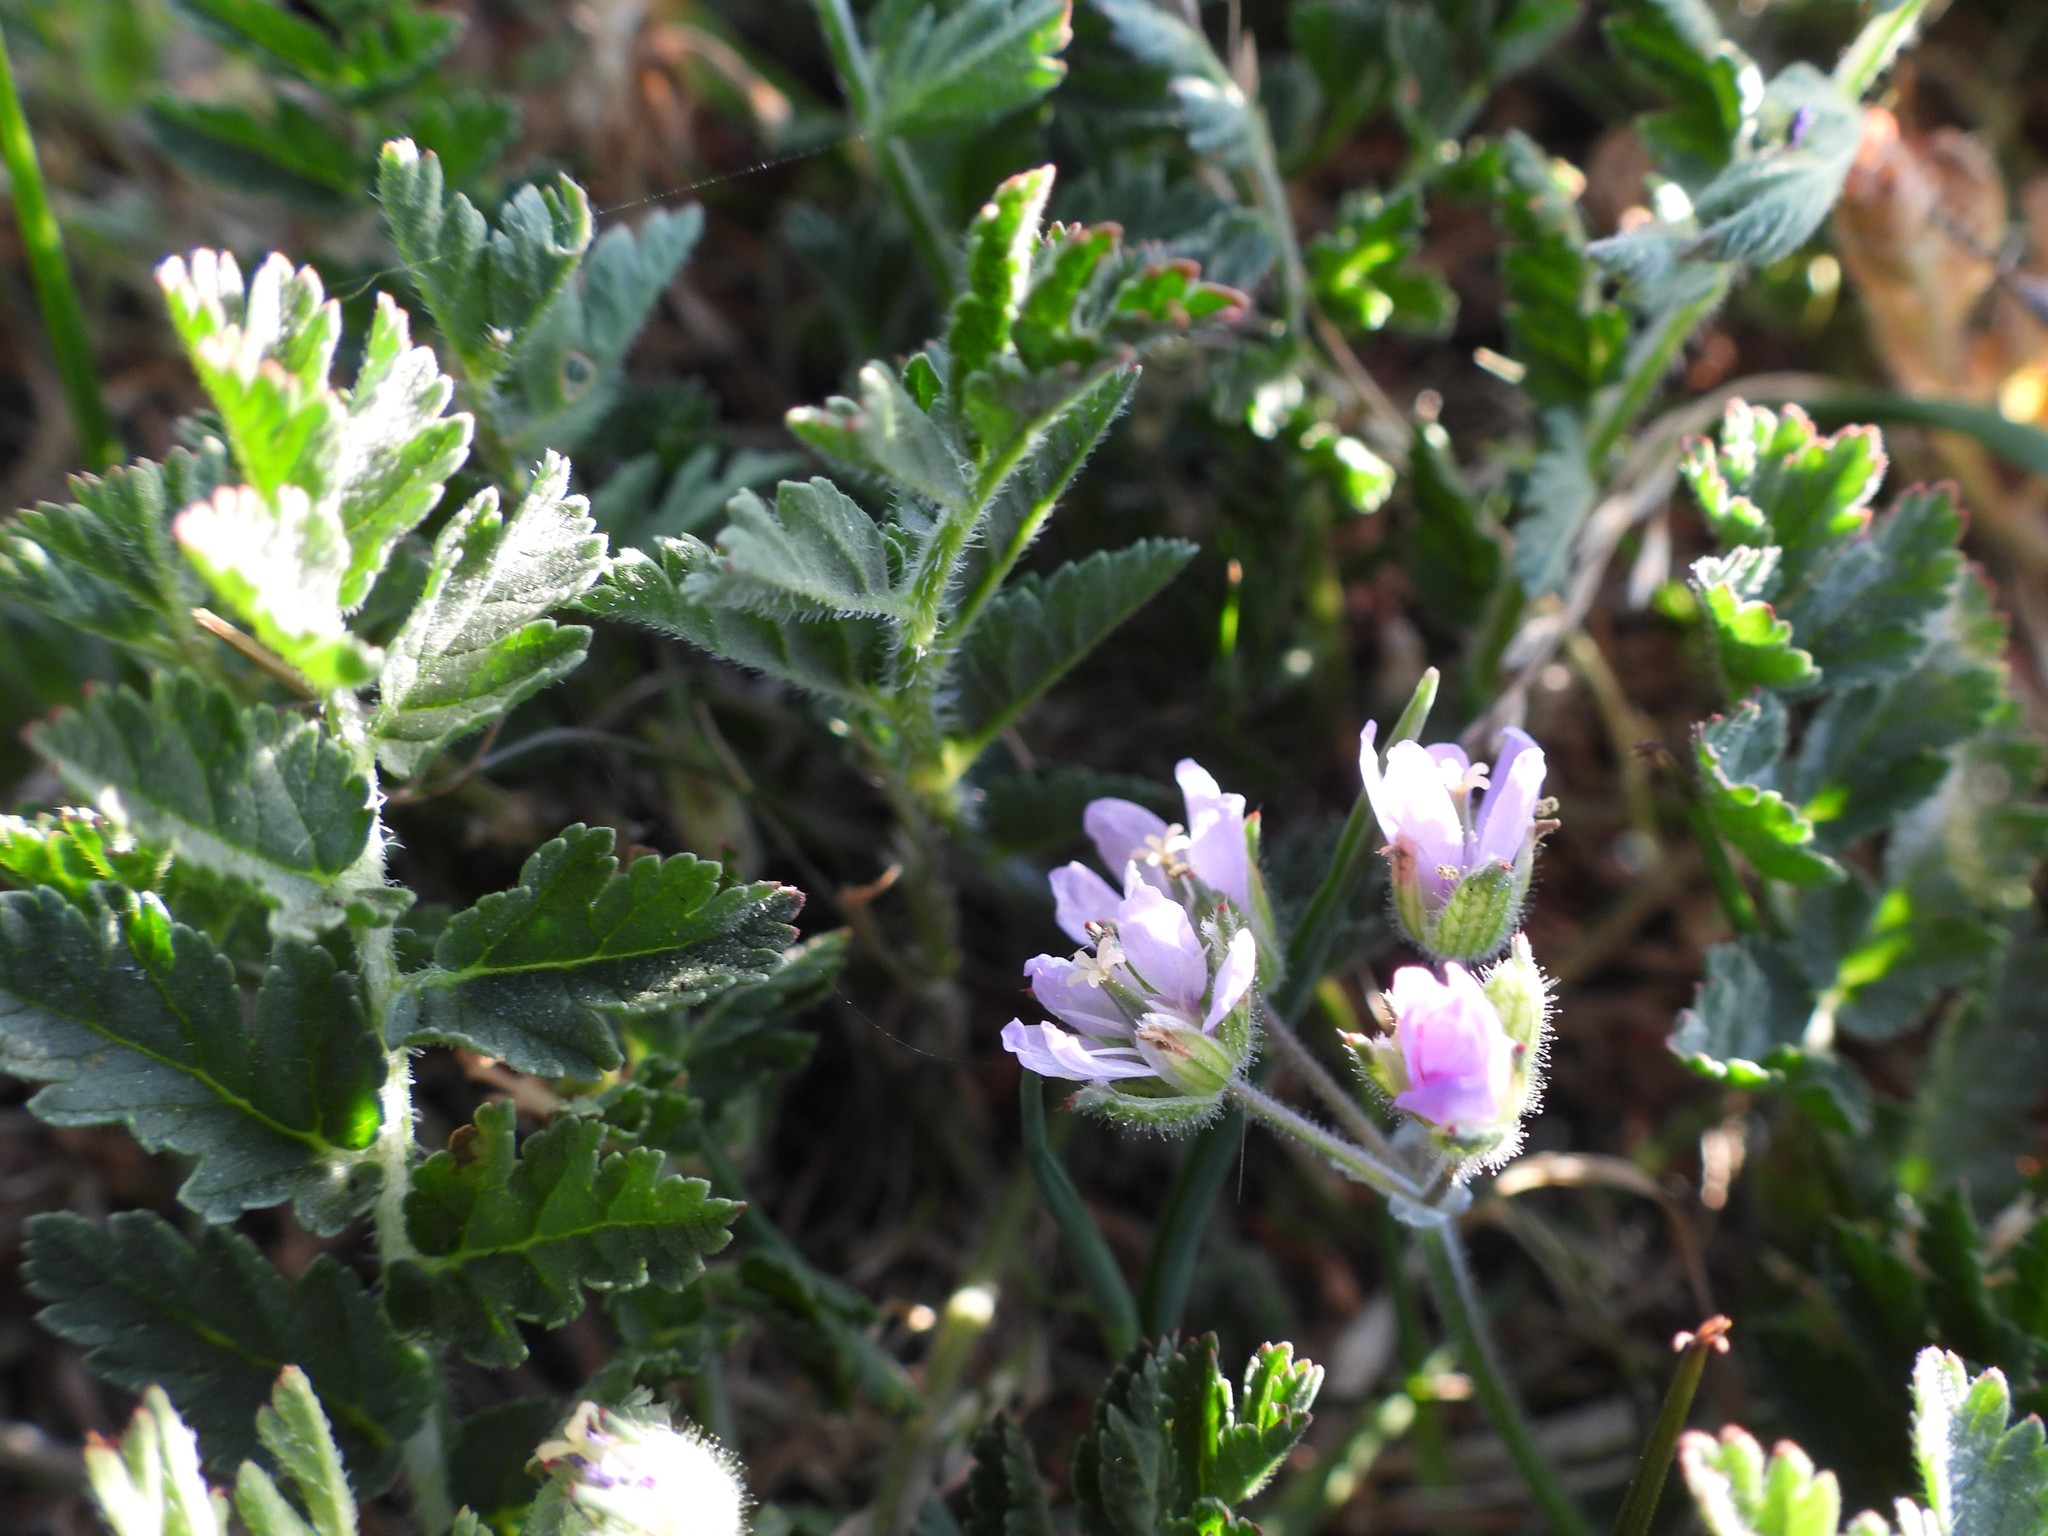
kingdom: Plantae
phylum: Tracheophyta
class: Magnoliopsida
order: Geraniales
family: Geraniaceae
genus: Erodium
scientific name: Erodium moschatum
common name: Musk stork's-bill
